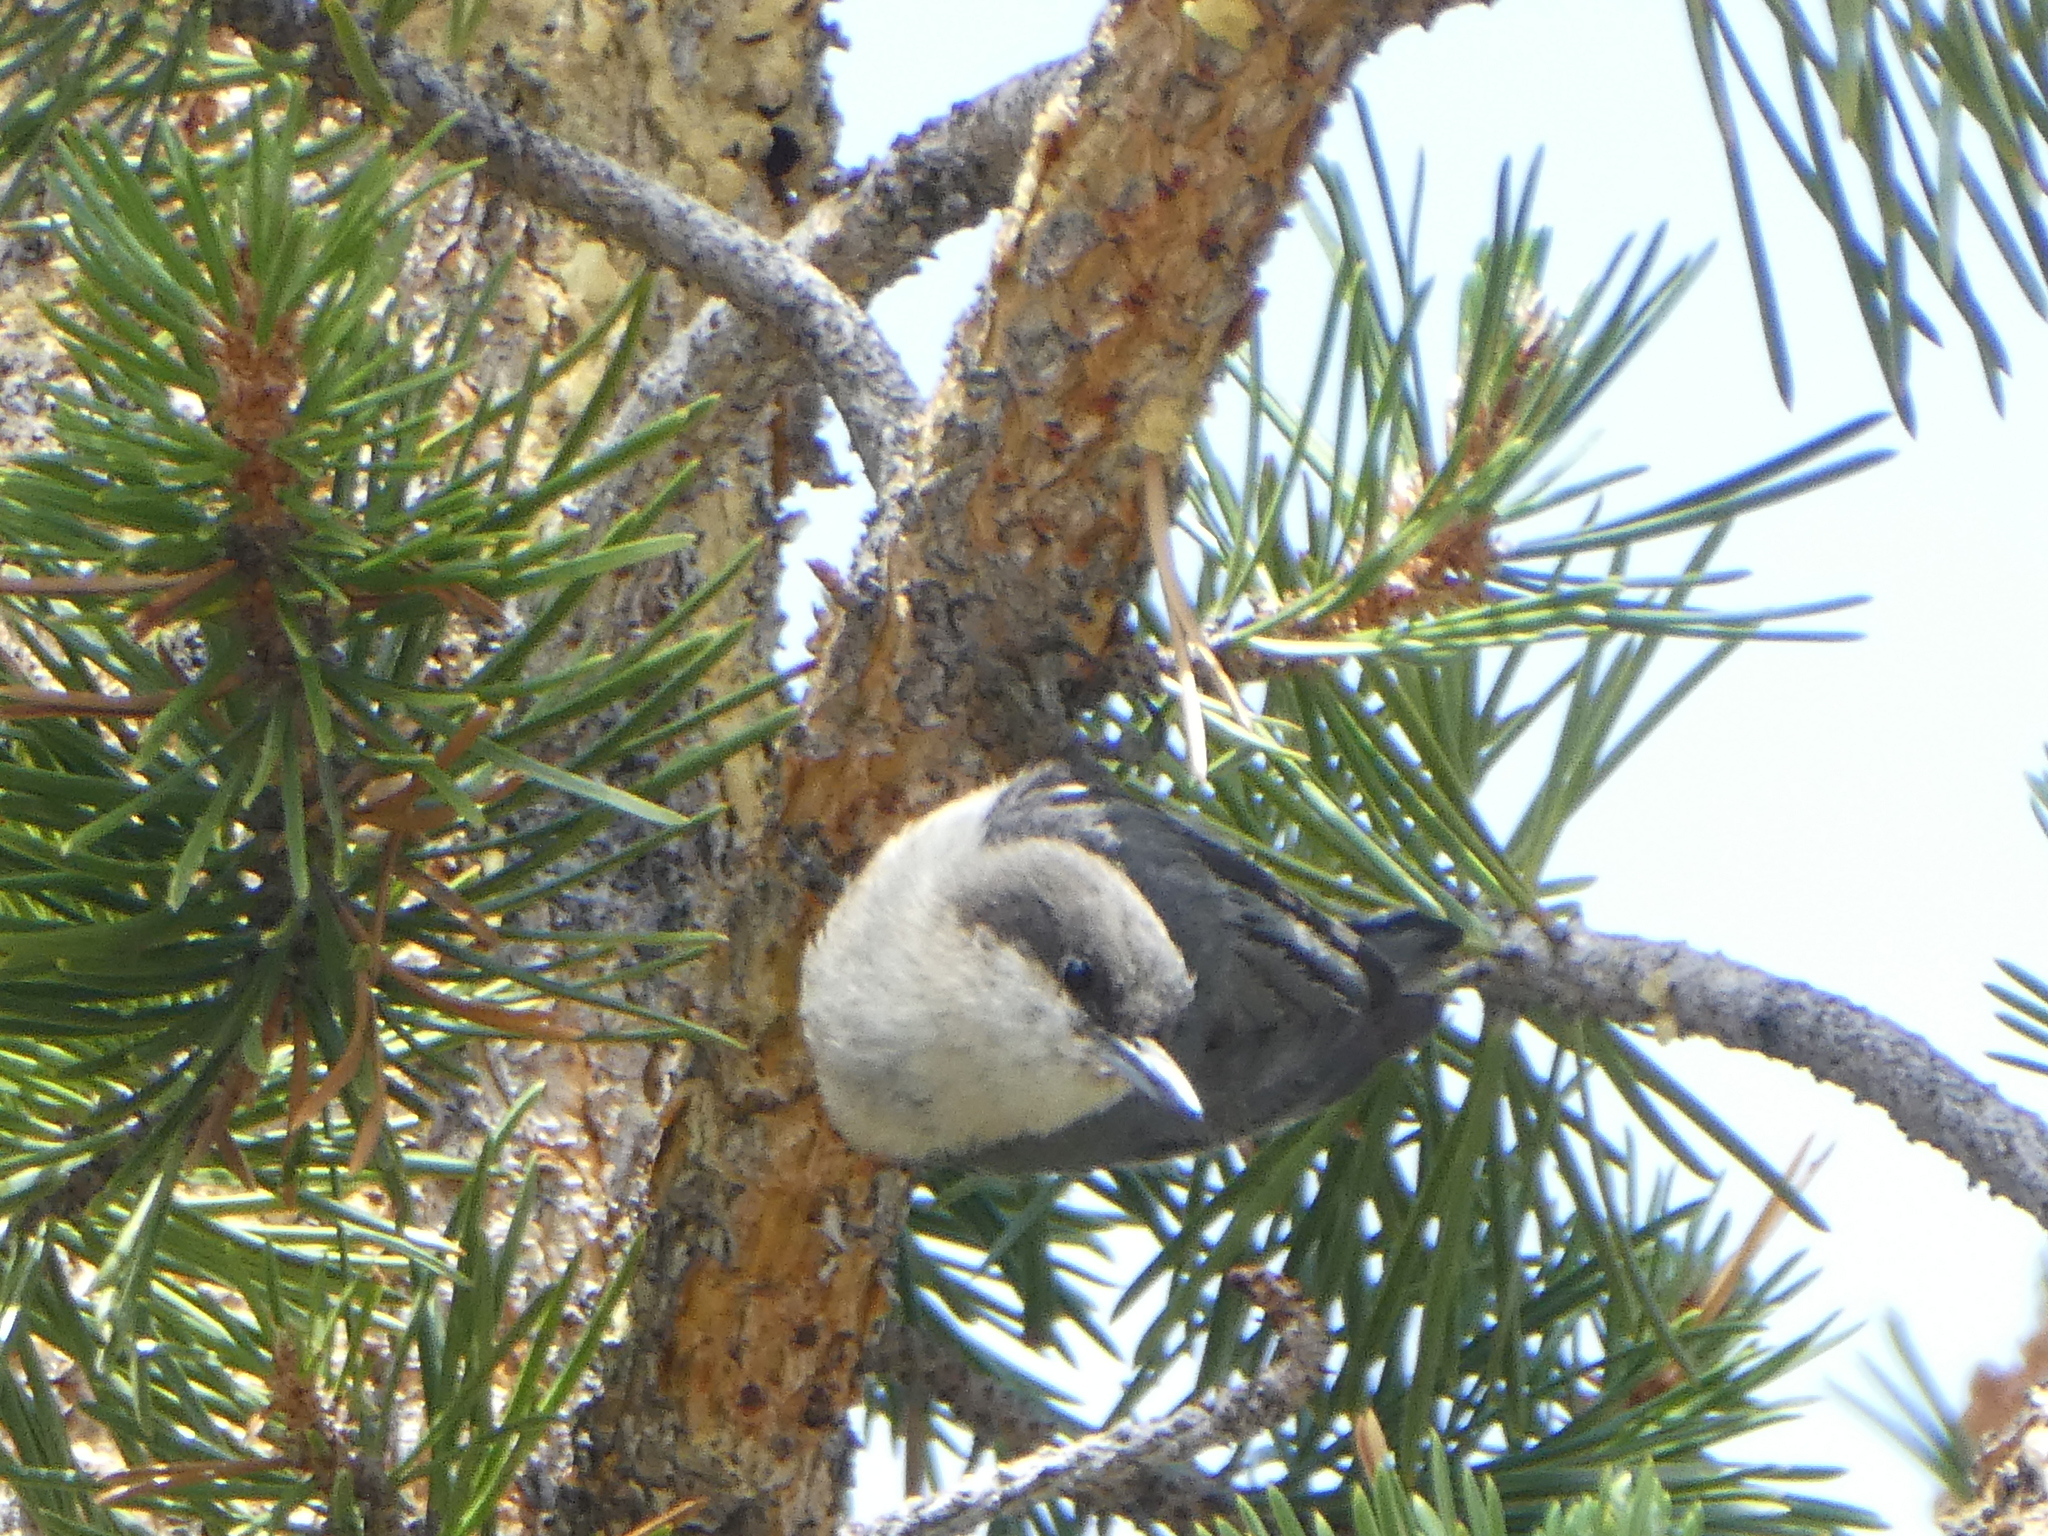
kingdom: Animalia
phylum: Chordata
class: Aves
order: Passeriformes
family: Sittidae
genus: Sitta
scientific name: Sitta pygmaea
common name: Pygmy nuthatch
